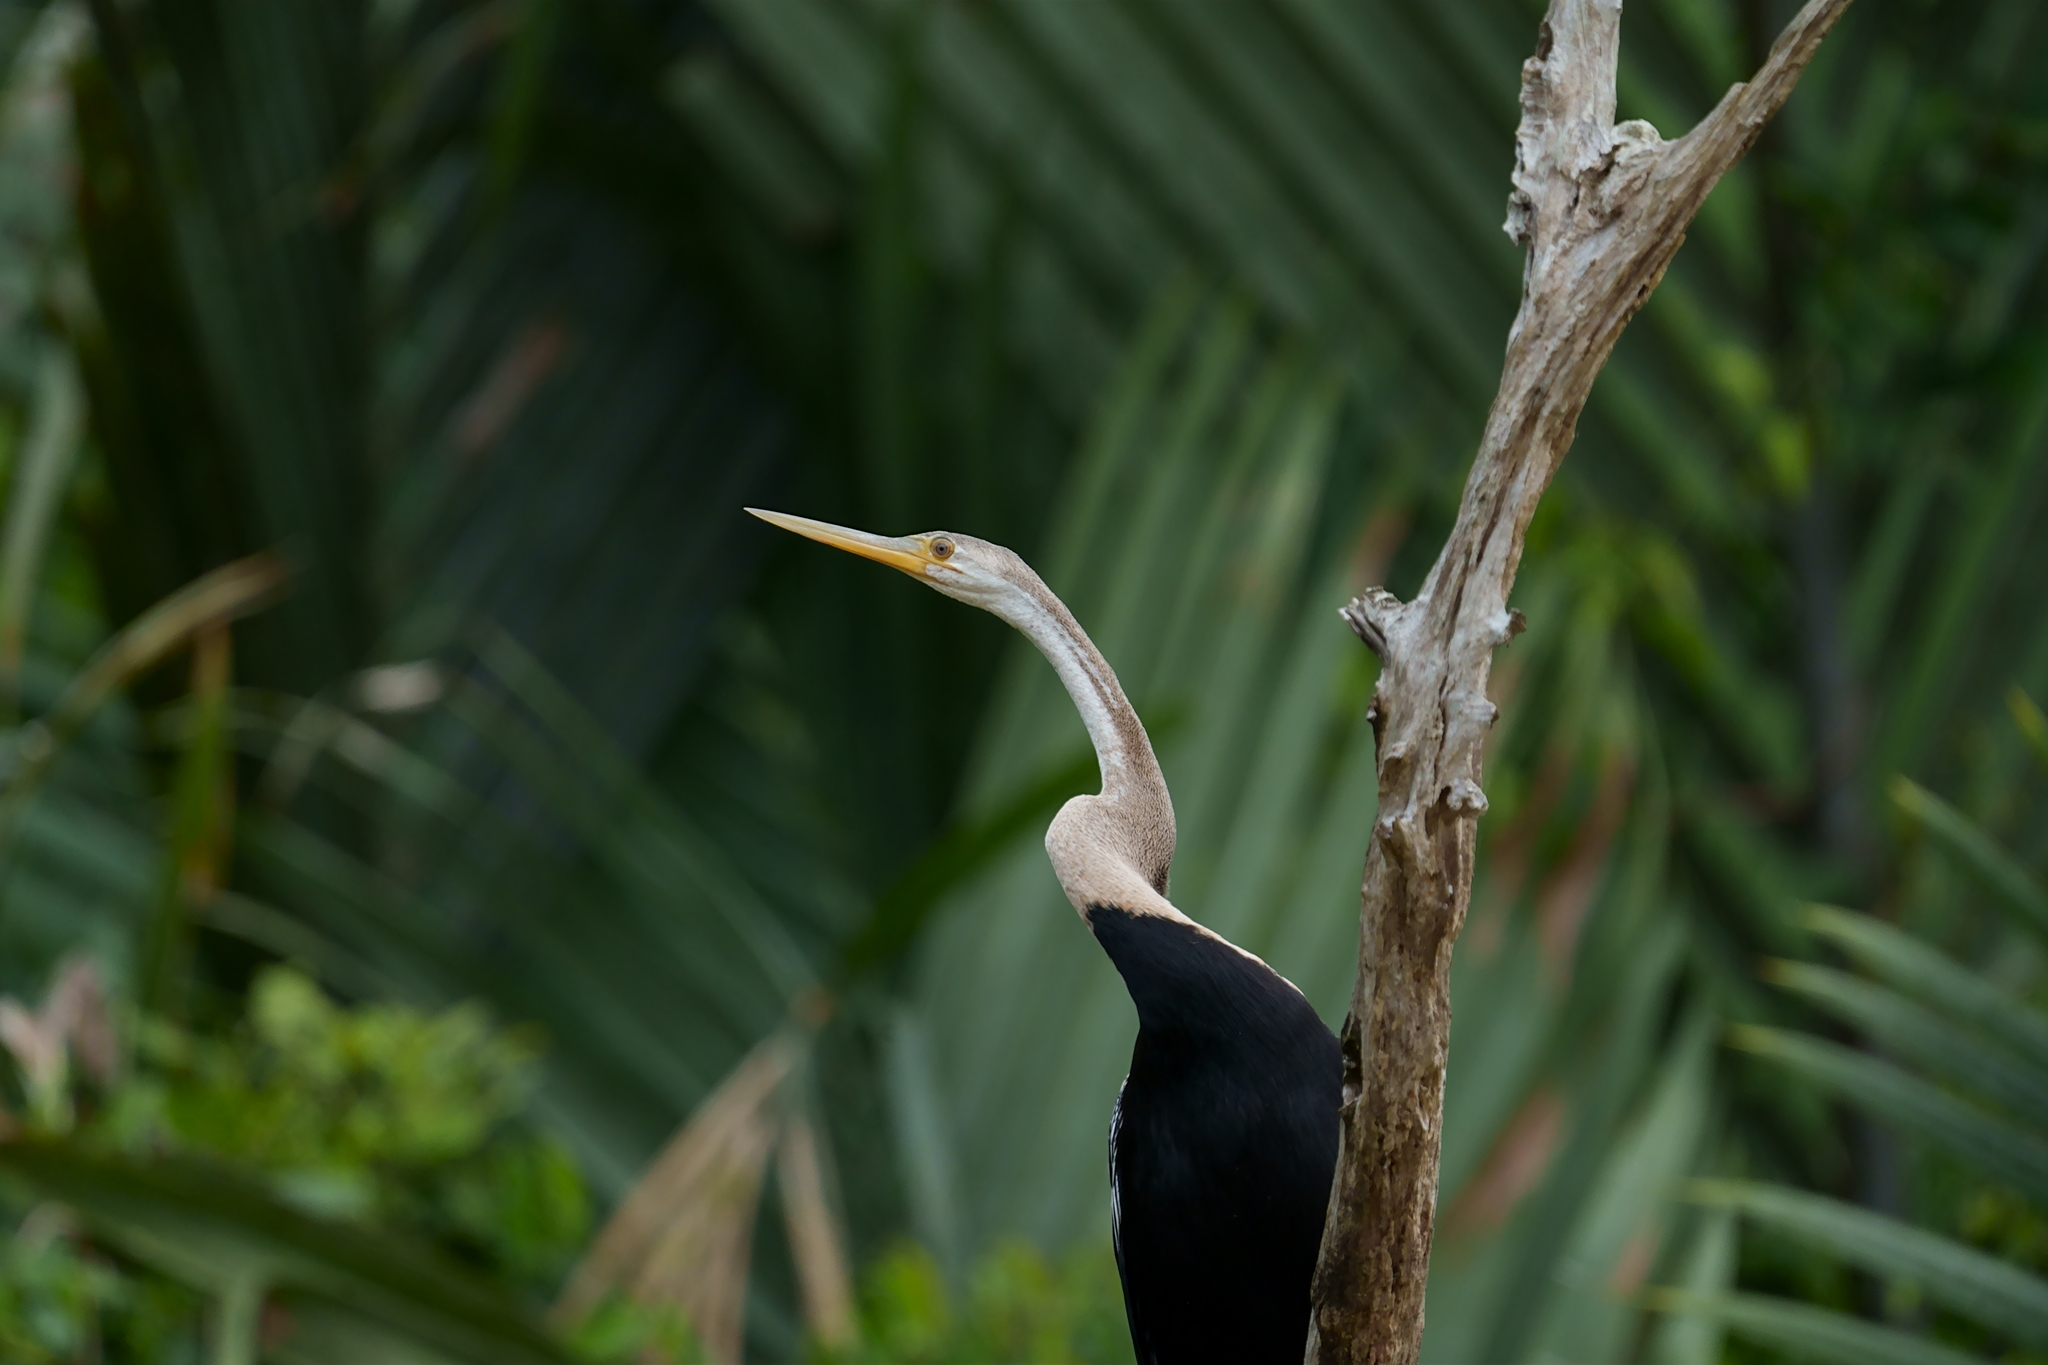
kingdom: Animalia
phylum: Chordata
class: Aves
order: Suliformes
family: Anhingidae
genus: Anhinga
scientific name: Anhinga melanogaster
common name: Oriental darter
